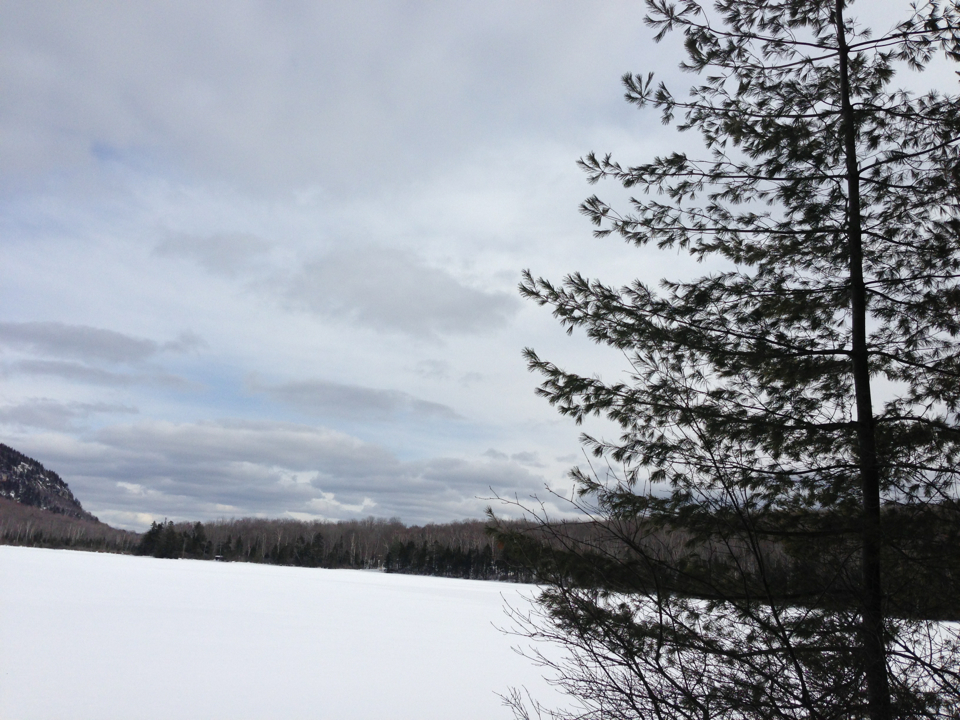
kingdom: Plantae
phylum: Tracheophyta
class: Pinopsida
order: Pinales
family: Pinaceae
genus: Pinus
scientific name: Pinus strobus
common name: Weymouth pine
